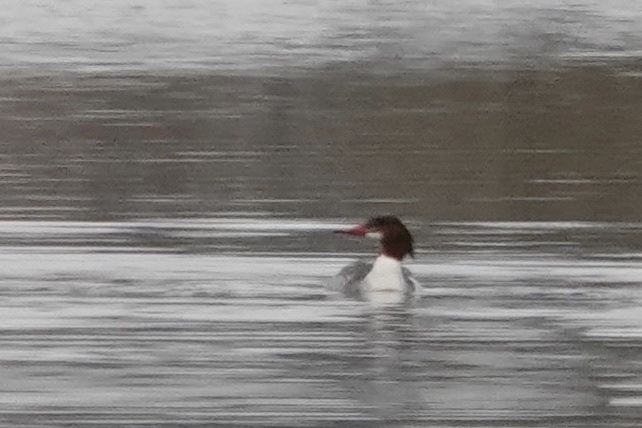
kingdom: Animalia
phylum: Chordata
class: Aves
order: Anseriformes
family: Anatidae
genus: Mergus
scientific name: Mergus merganser
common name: Common merganser
